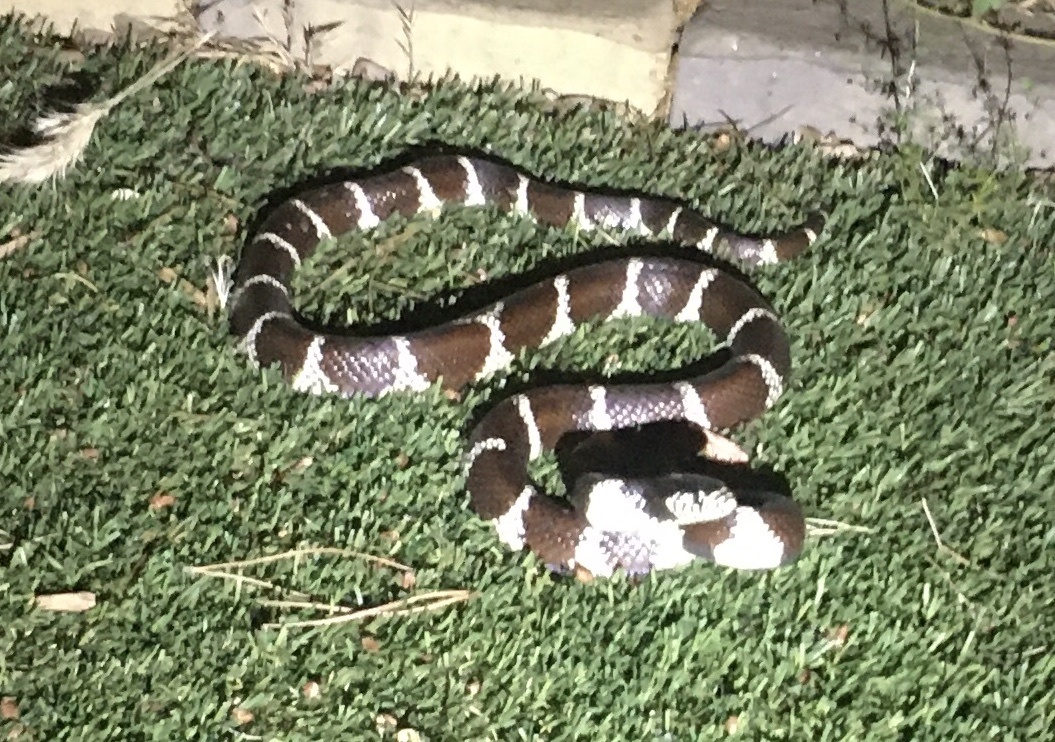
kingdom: Animalia
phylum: Chordata
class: Squamata
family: Colubridae
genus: Lampropeltis
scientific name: Lampropeltis californiae
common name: California kingsnake
